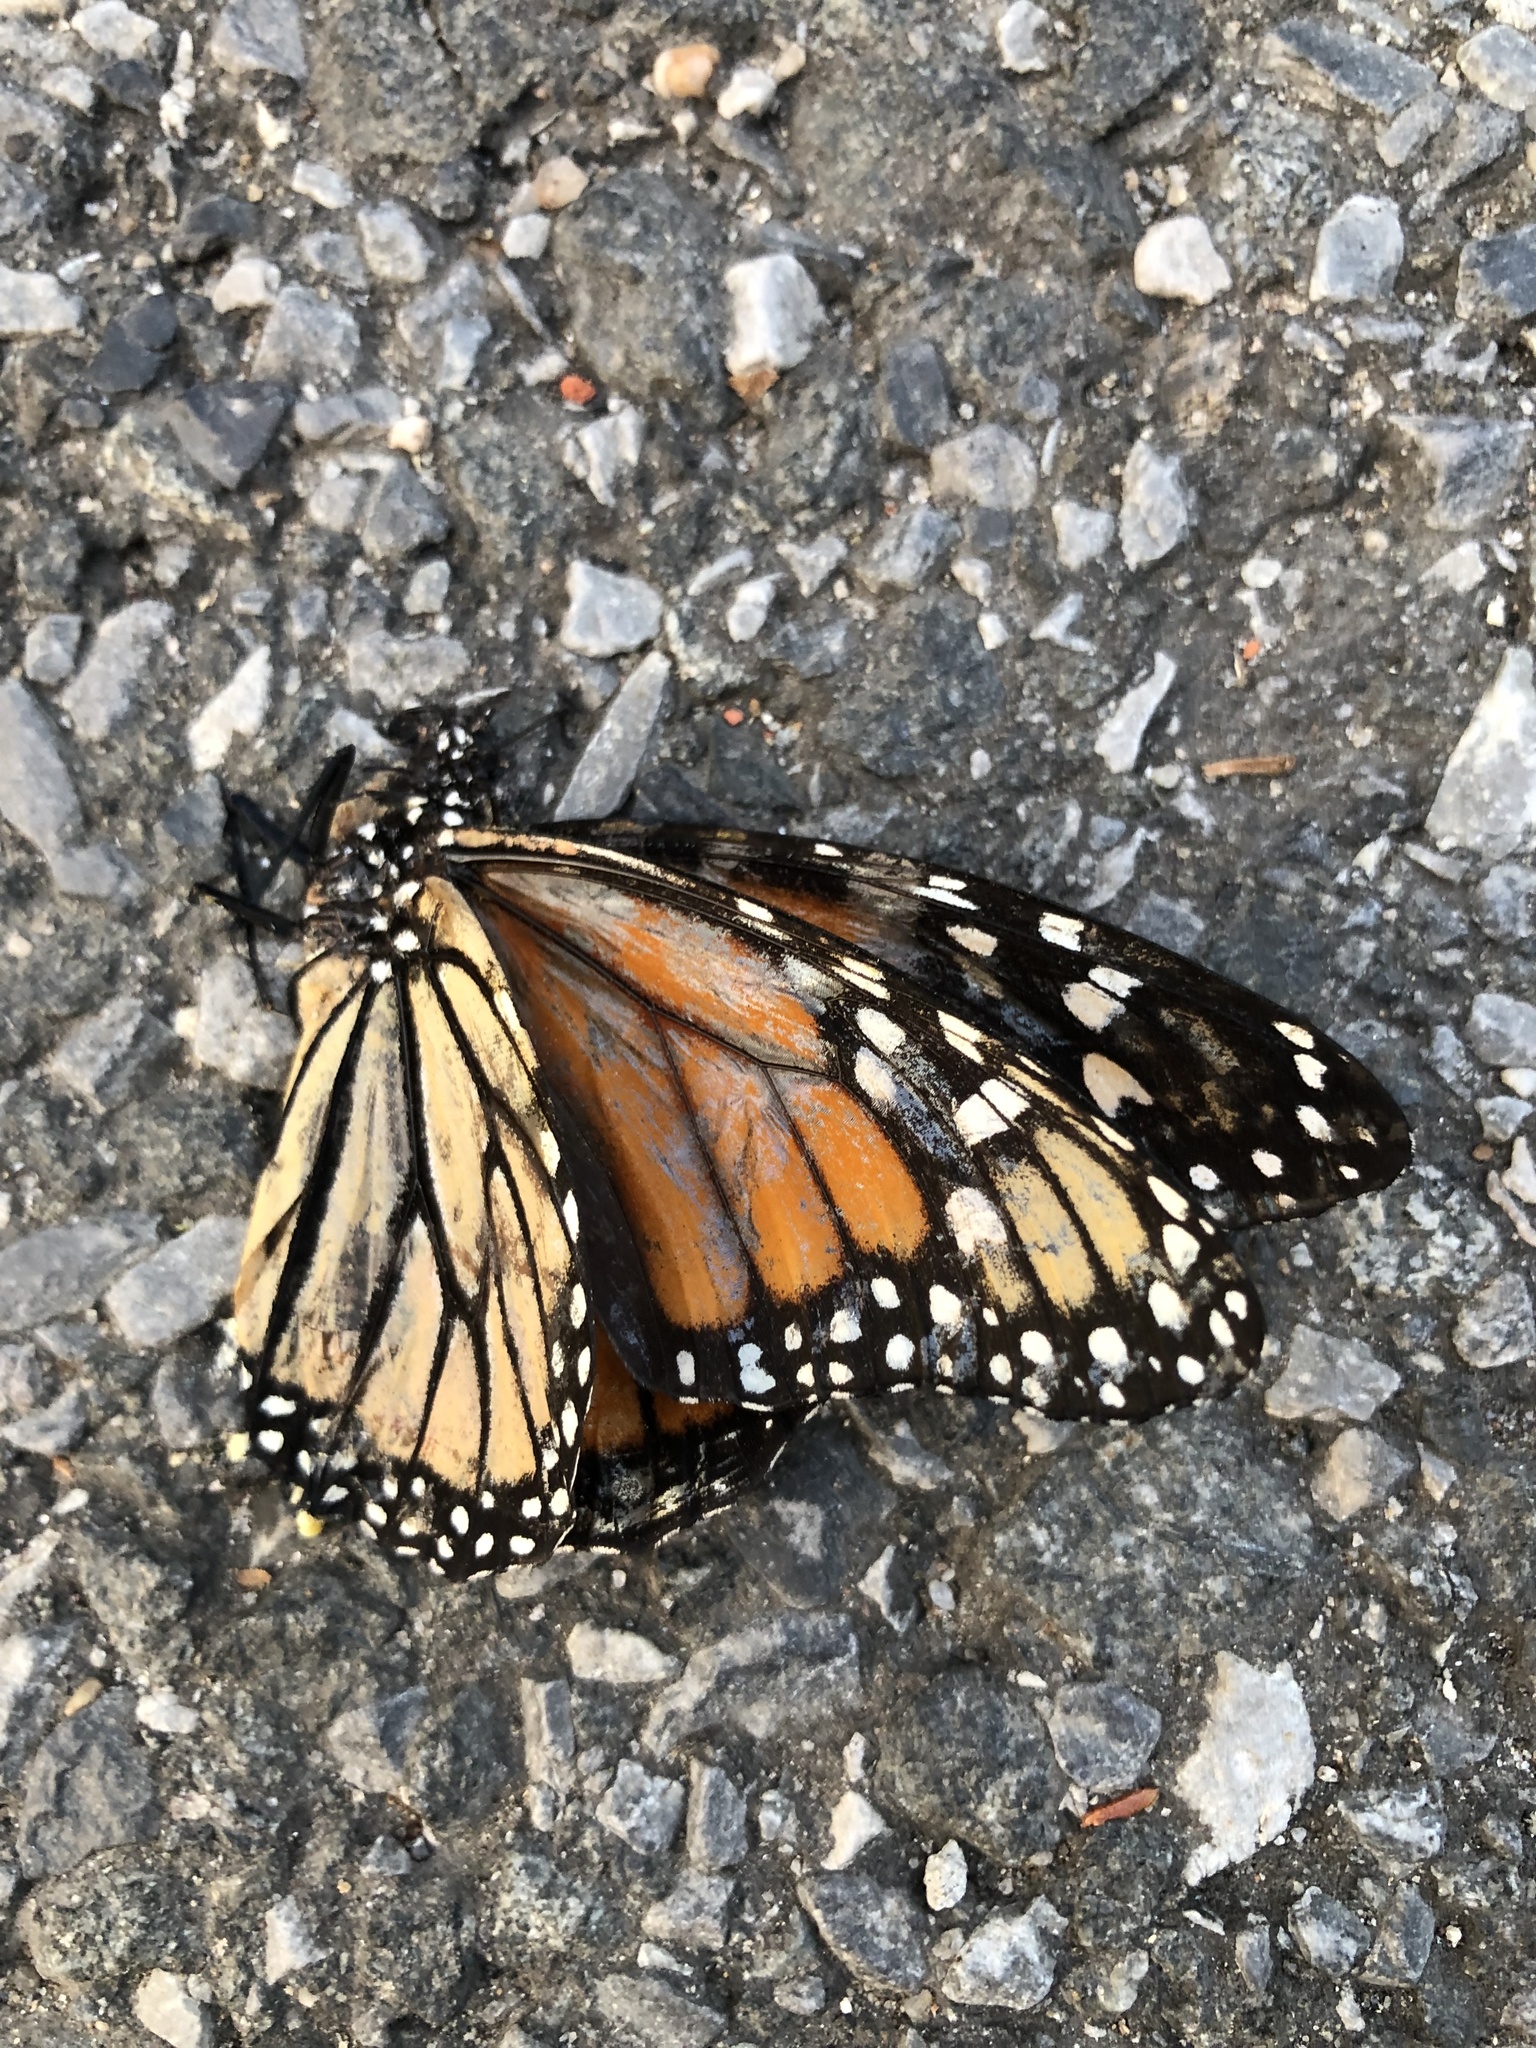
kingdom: Animalia
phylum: Arthropoda
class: Insecta
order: Lepidoptera
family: Nymphalidae
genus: Danaus
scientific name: Danaus plexippus
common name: Monarch
